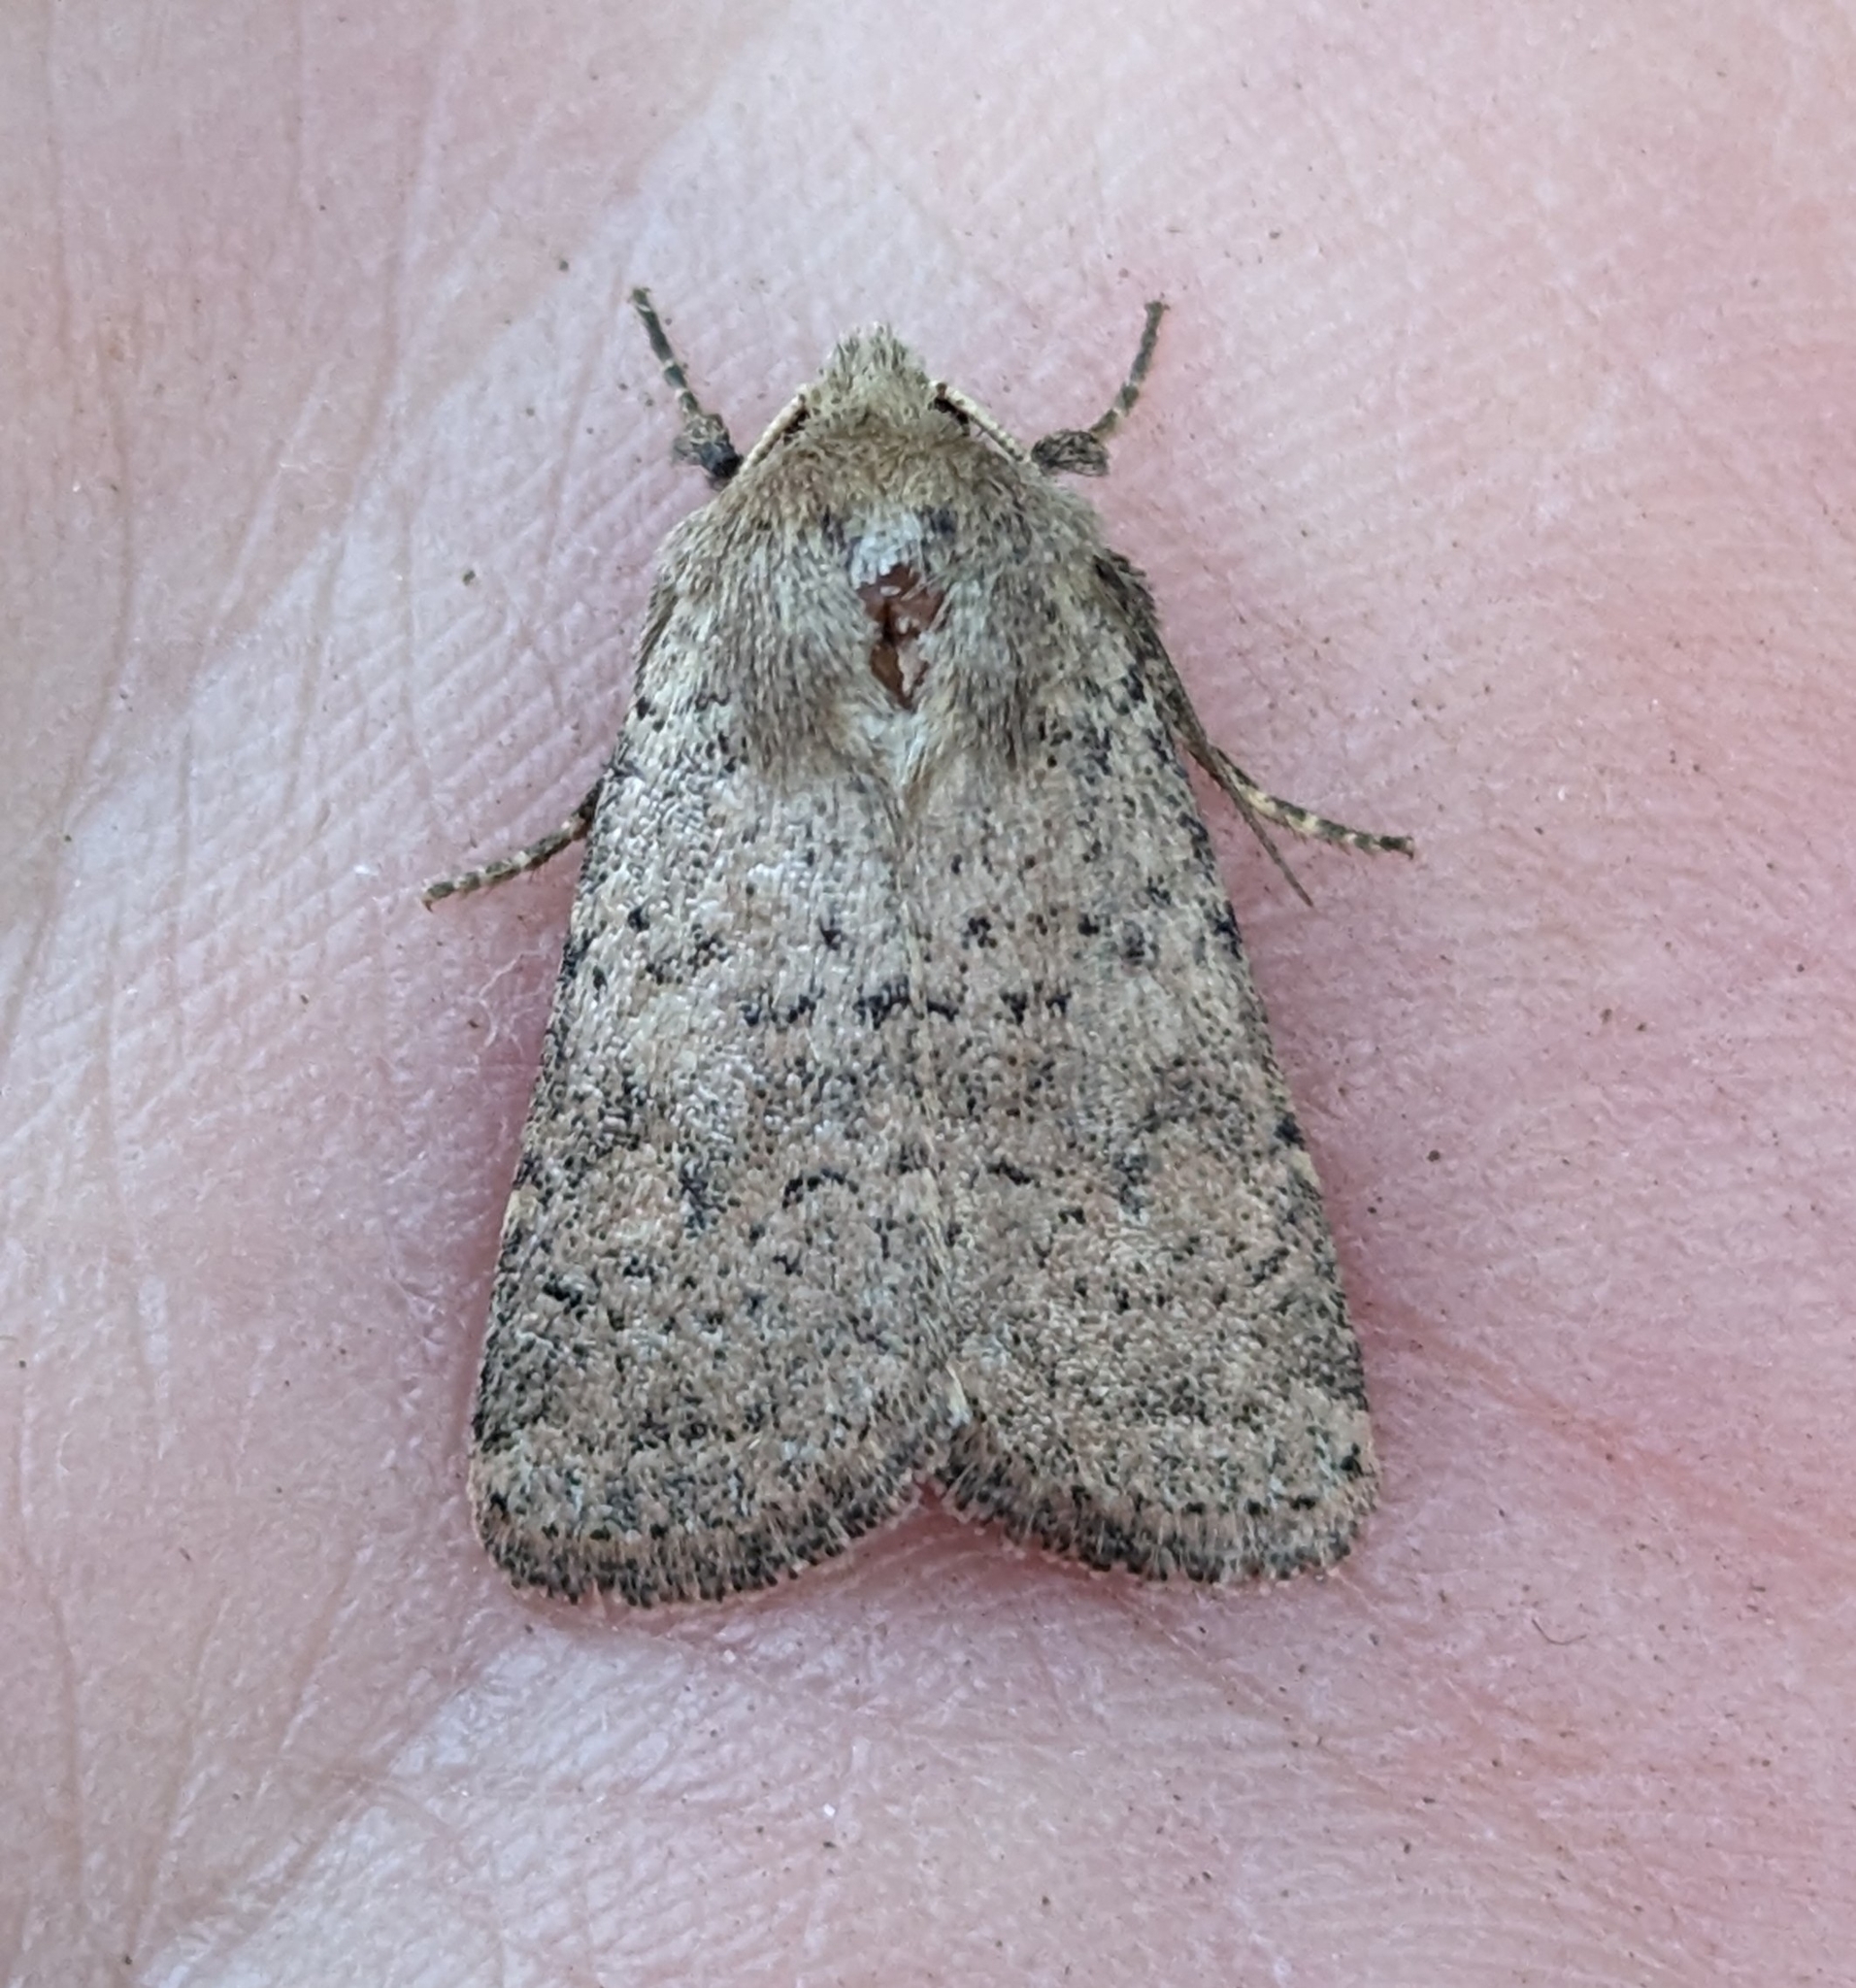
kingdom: Animalia
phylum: Arthropoda
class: Insecta
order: Lepidoptera
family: Noctuidae
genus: Caradrina
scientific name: Caradrina montana
